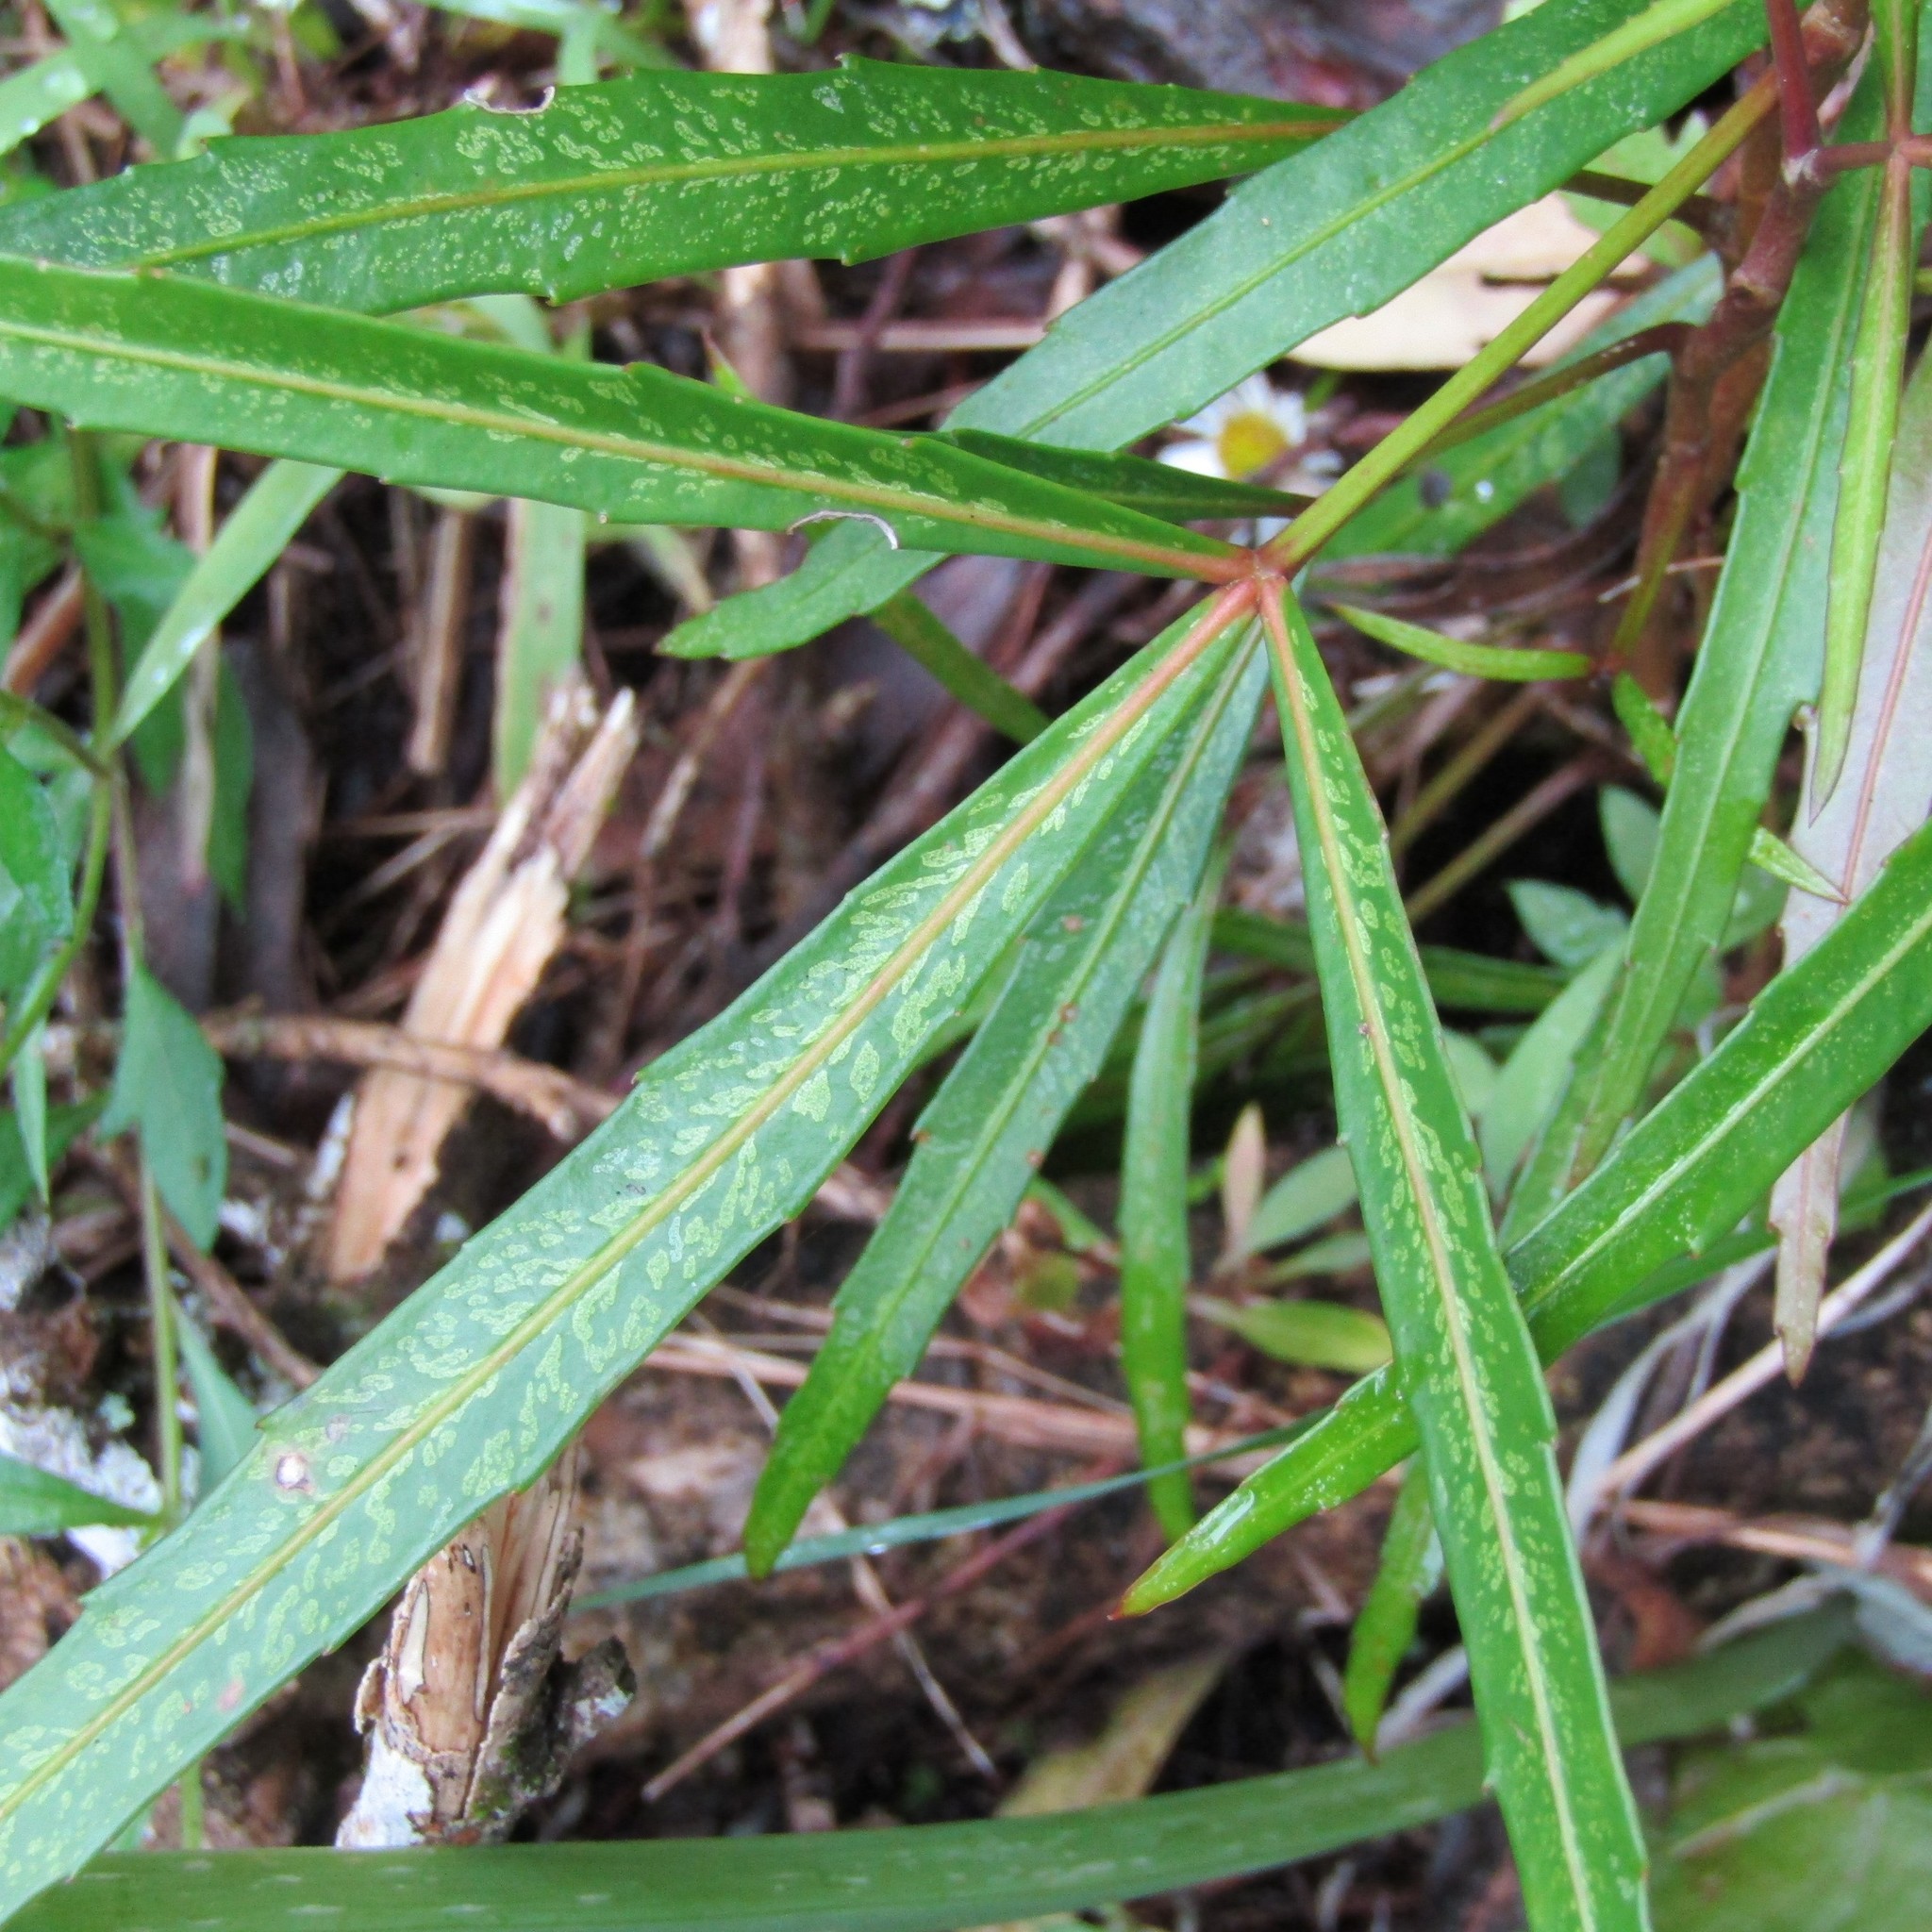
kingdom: Plantae
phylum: Tracheophyta
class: Magnoliopsida
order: Apiales
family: Araliaceae
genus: Pseudopanax
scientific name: Pseudopanax
